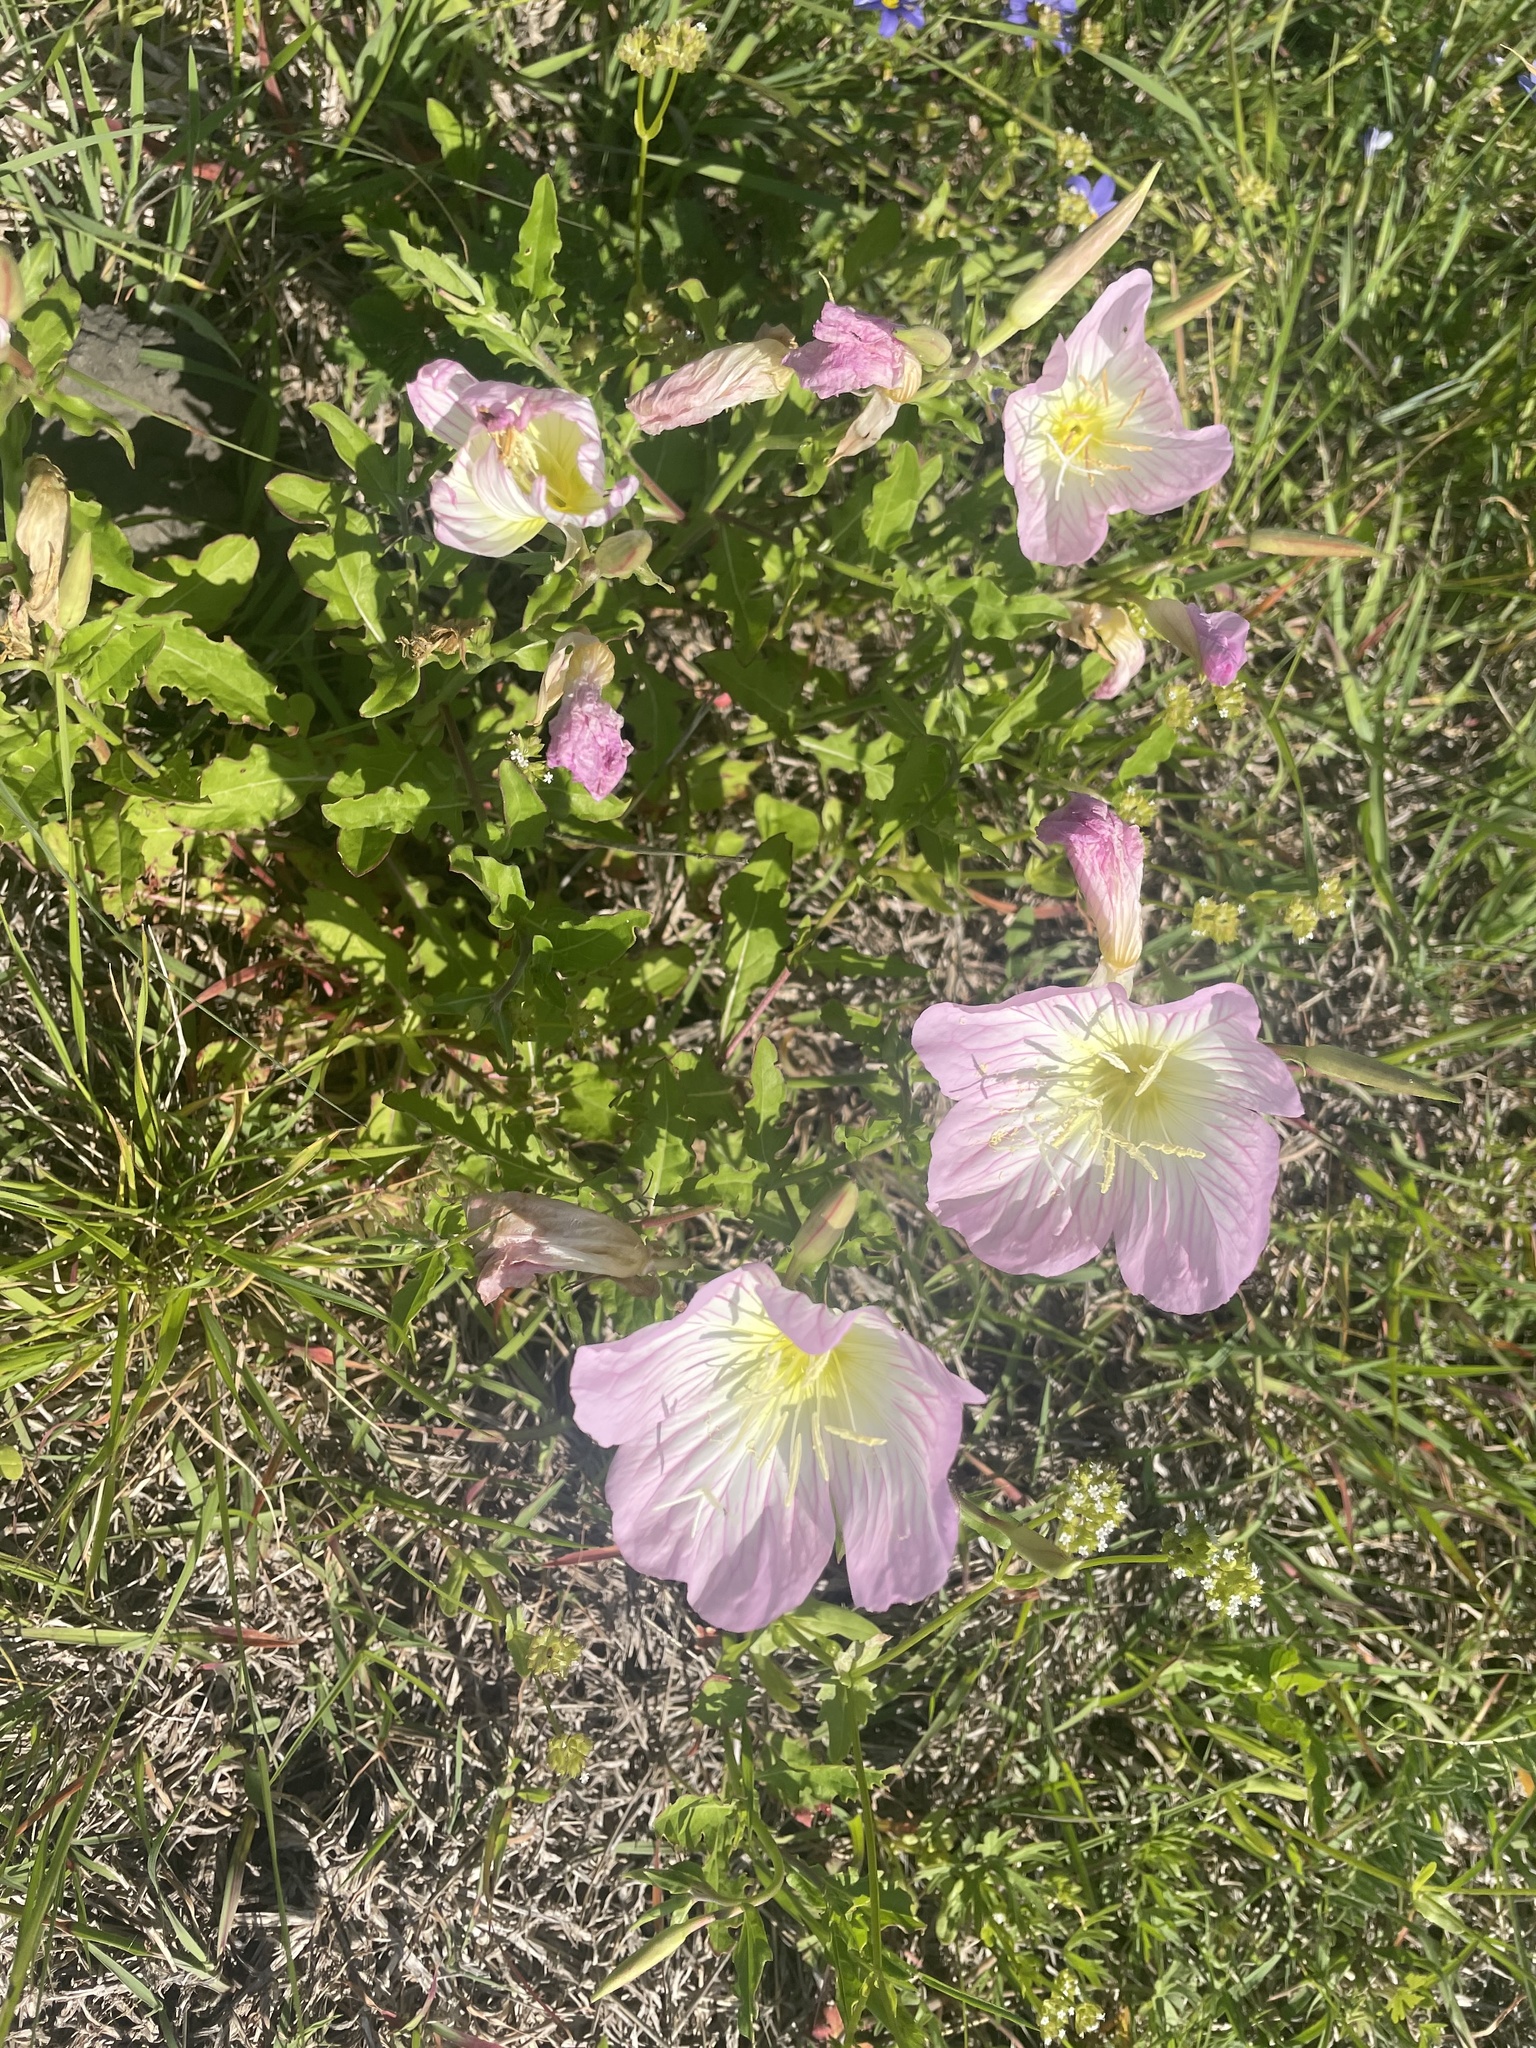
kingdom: Plantae
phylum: Tracheophyta
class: Magnoliopsida
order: Myrtales
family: Onagraceae
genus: Oenothera
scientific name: Oenothera speciosa
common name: White evening-primrose
